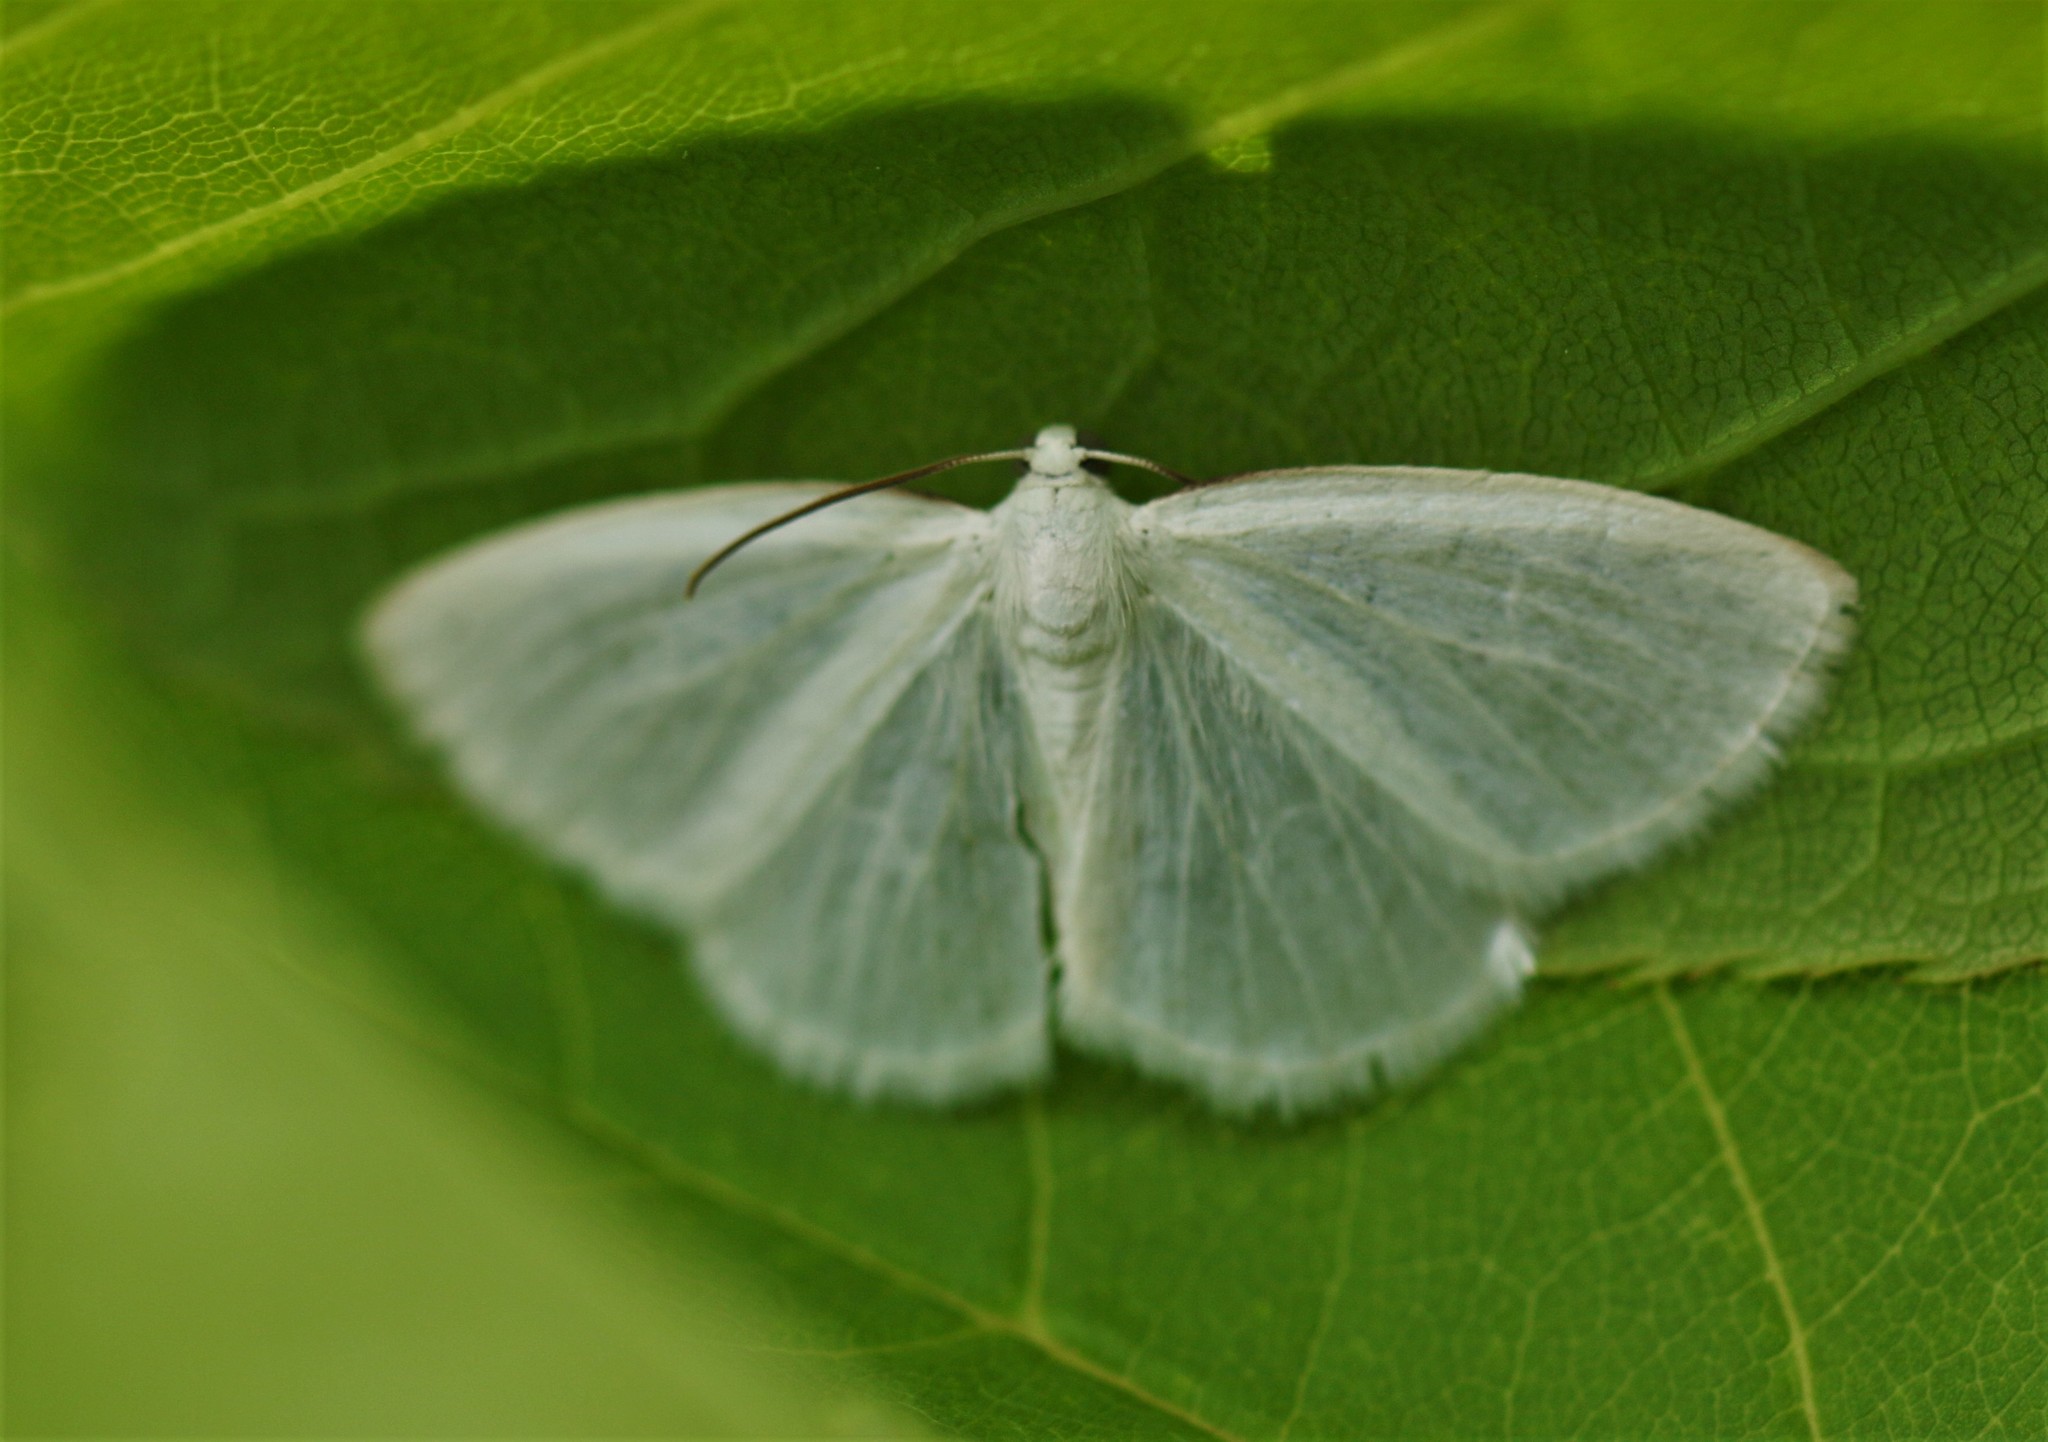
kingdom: Animalia
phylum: Arthropoda
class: Insecta
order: Lepidoptera
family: Geometridae
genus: Lomographa
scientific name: Lomographa vestaliata
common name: White spring moth
